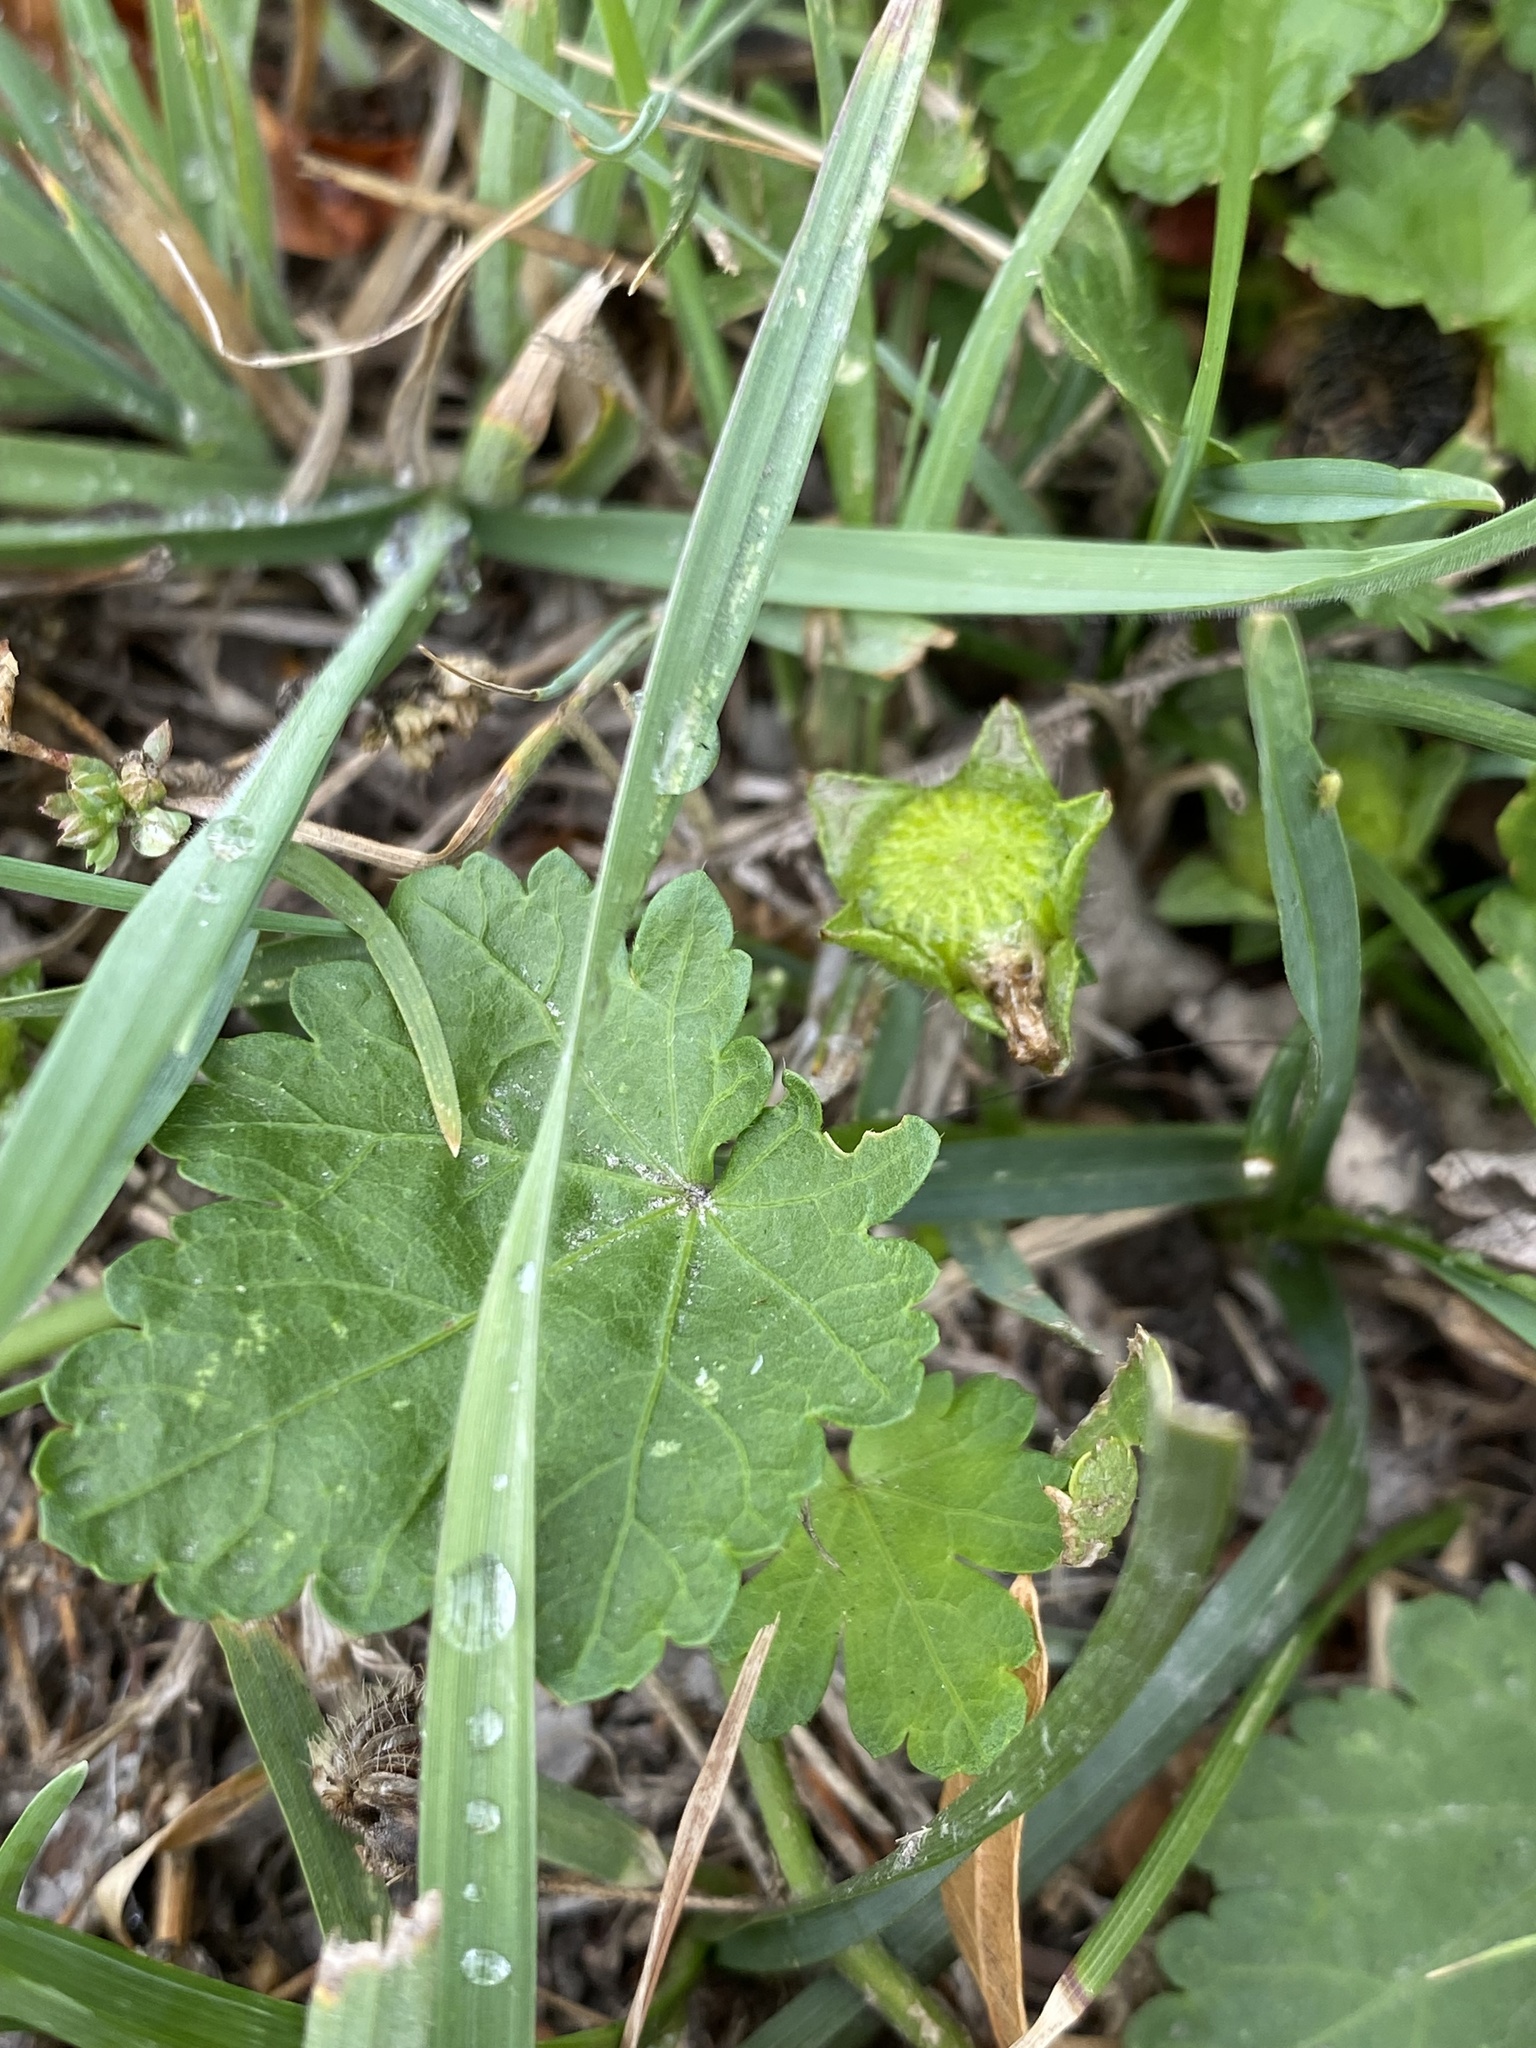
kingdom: Plantae
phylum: Tracheophyta
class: Magnoliopsida
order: Malvales
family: Malvaceae
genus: Modiola
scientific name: Modiola caroliniana
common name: Carolina bristlemallow
